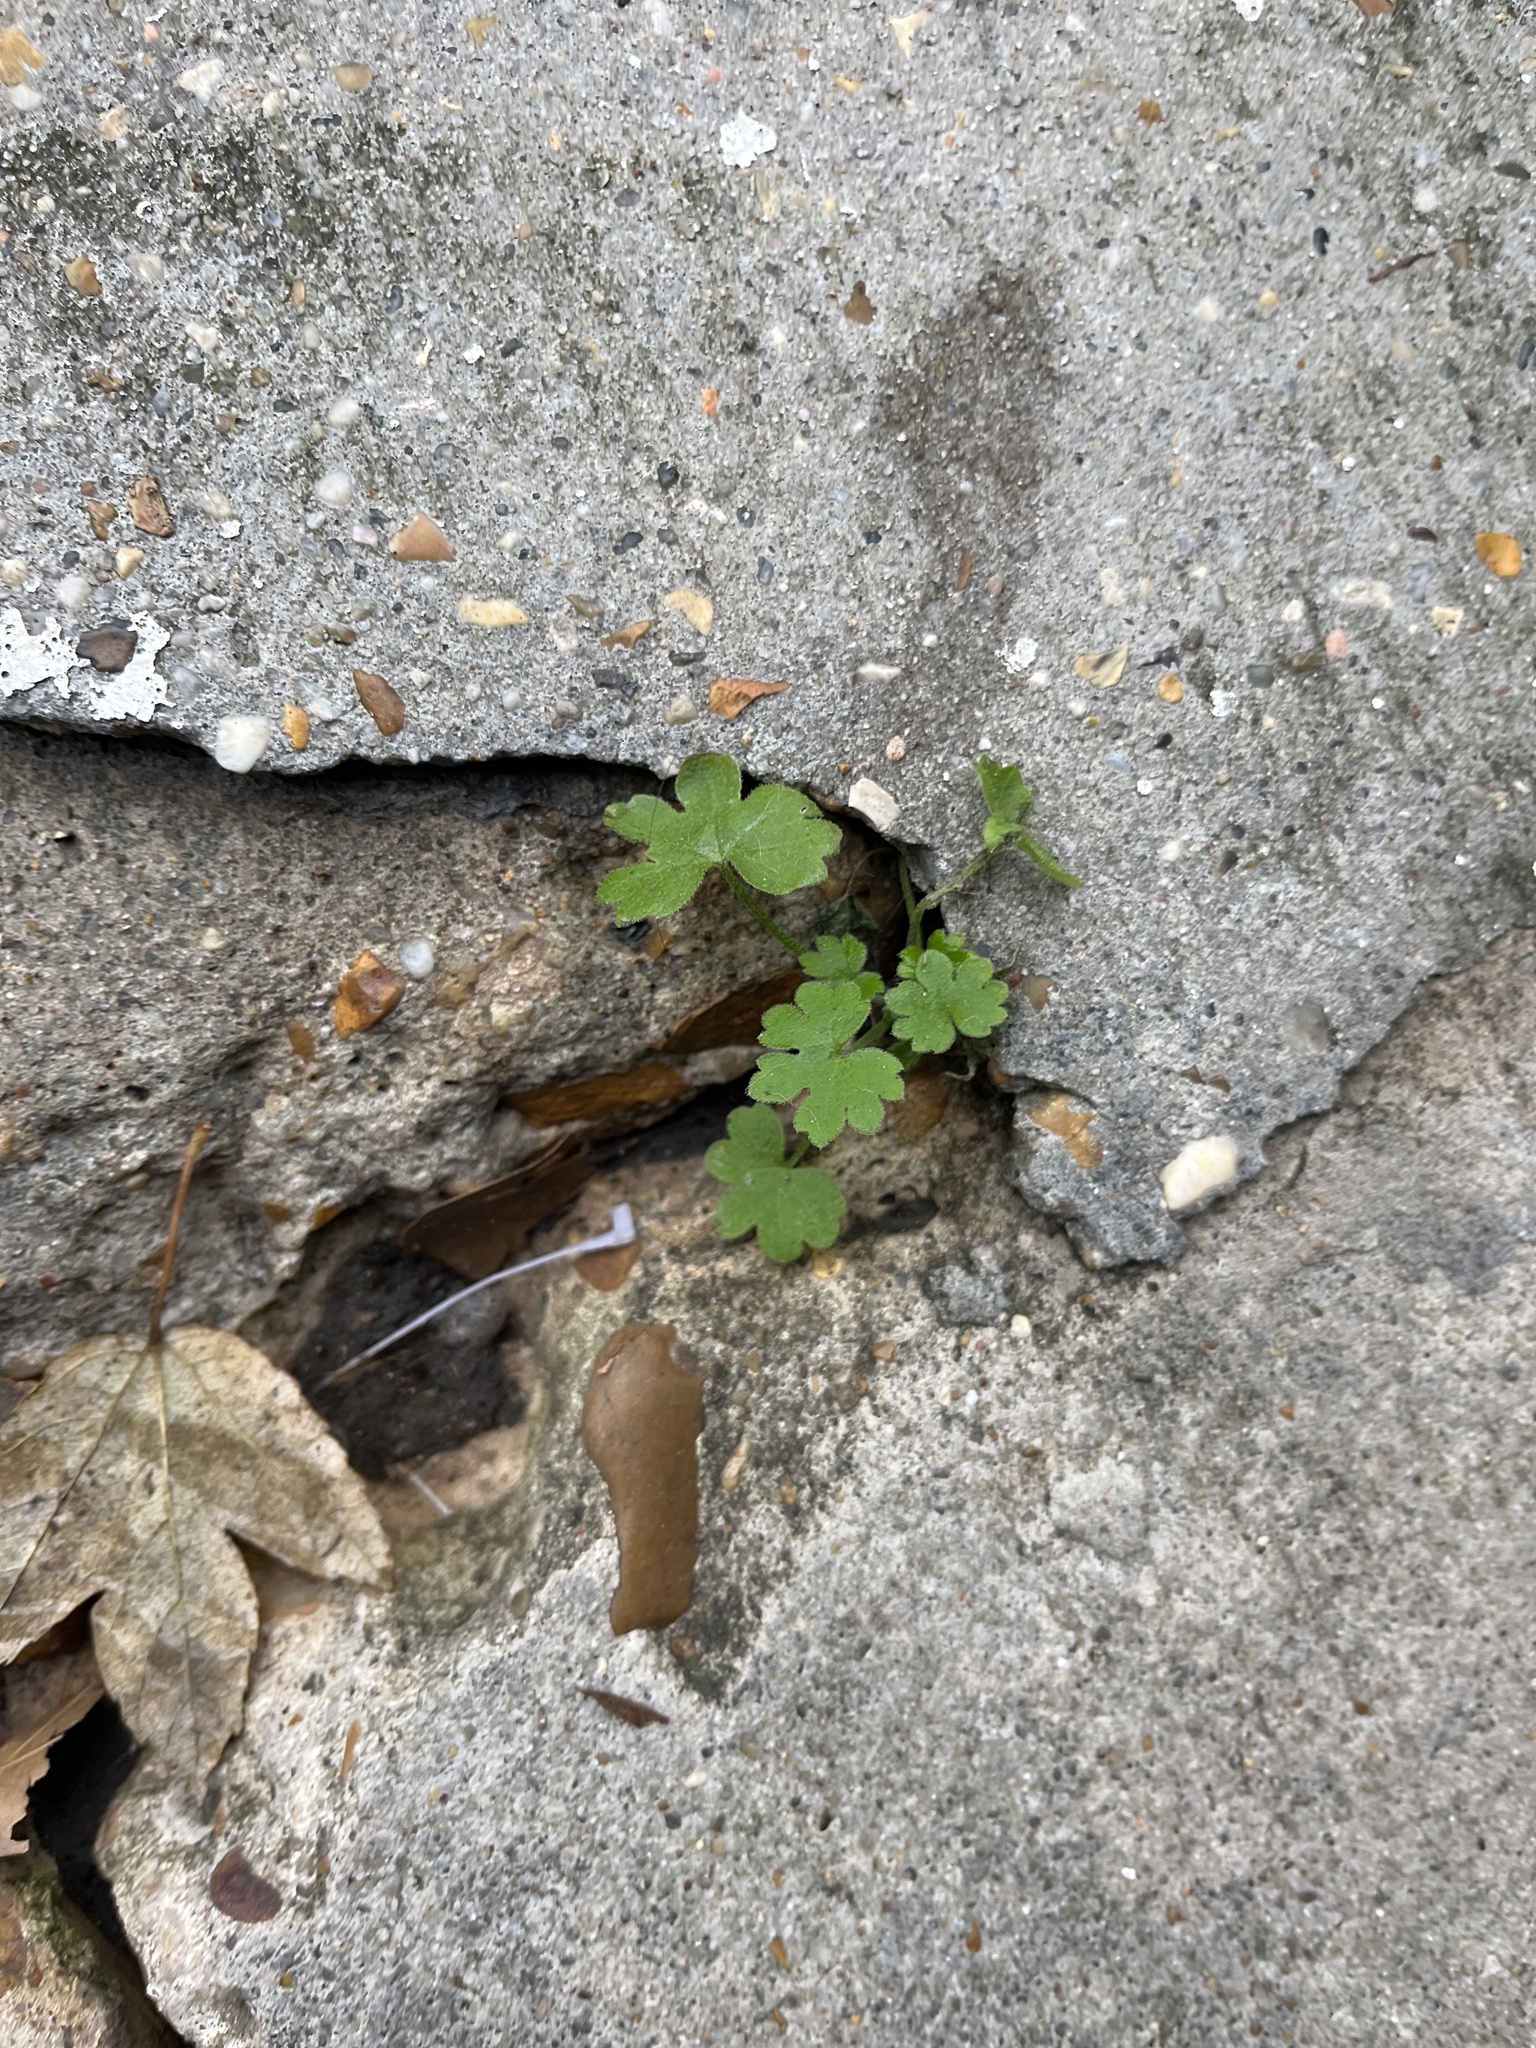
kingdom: Plantae
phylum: Tracheophyta
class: Magnoliopsida
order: Apiales
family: Apiaceae
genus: Bowlesia
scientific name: Bowlesia incana
